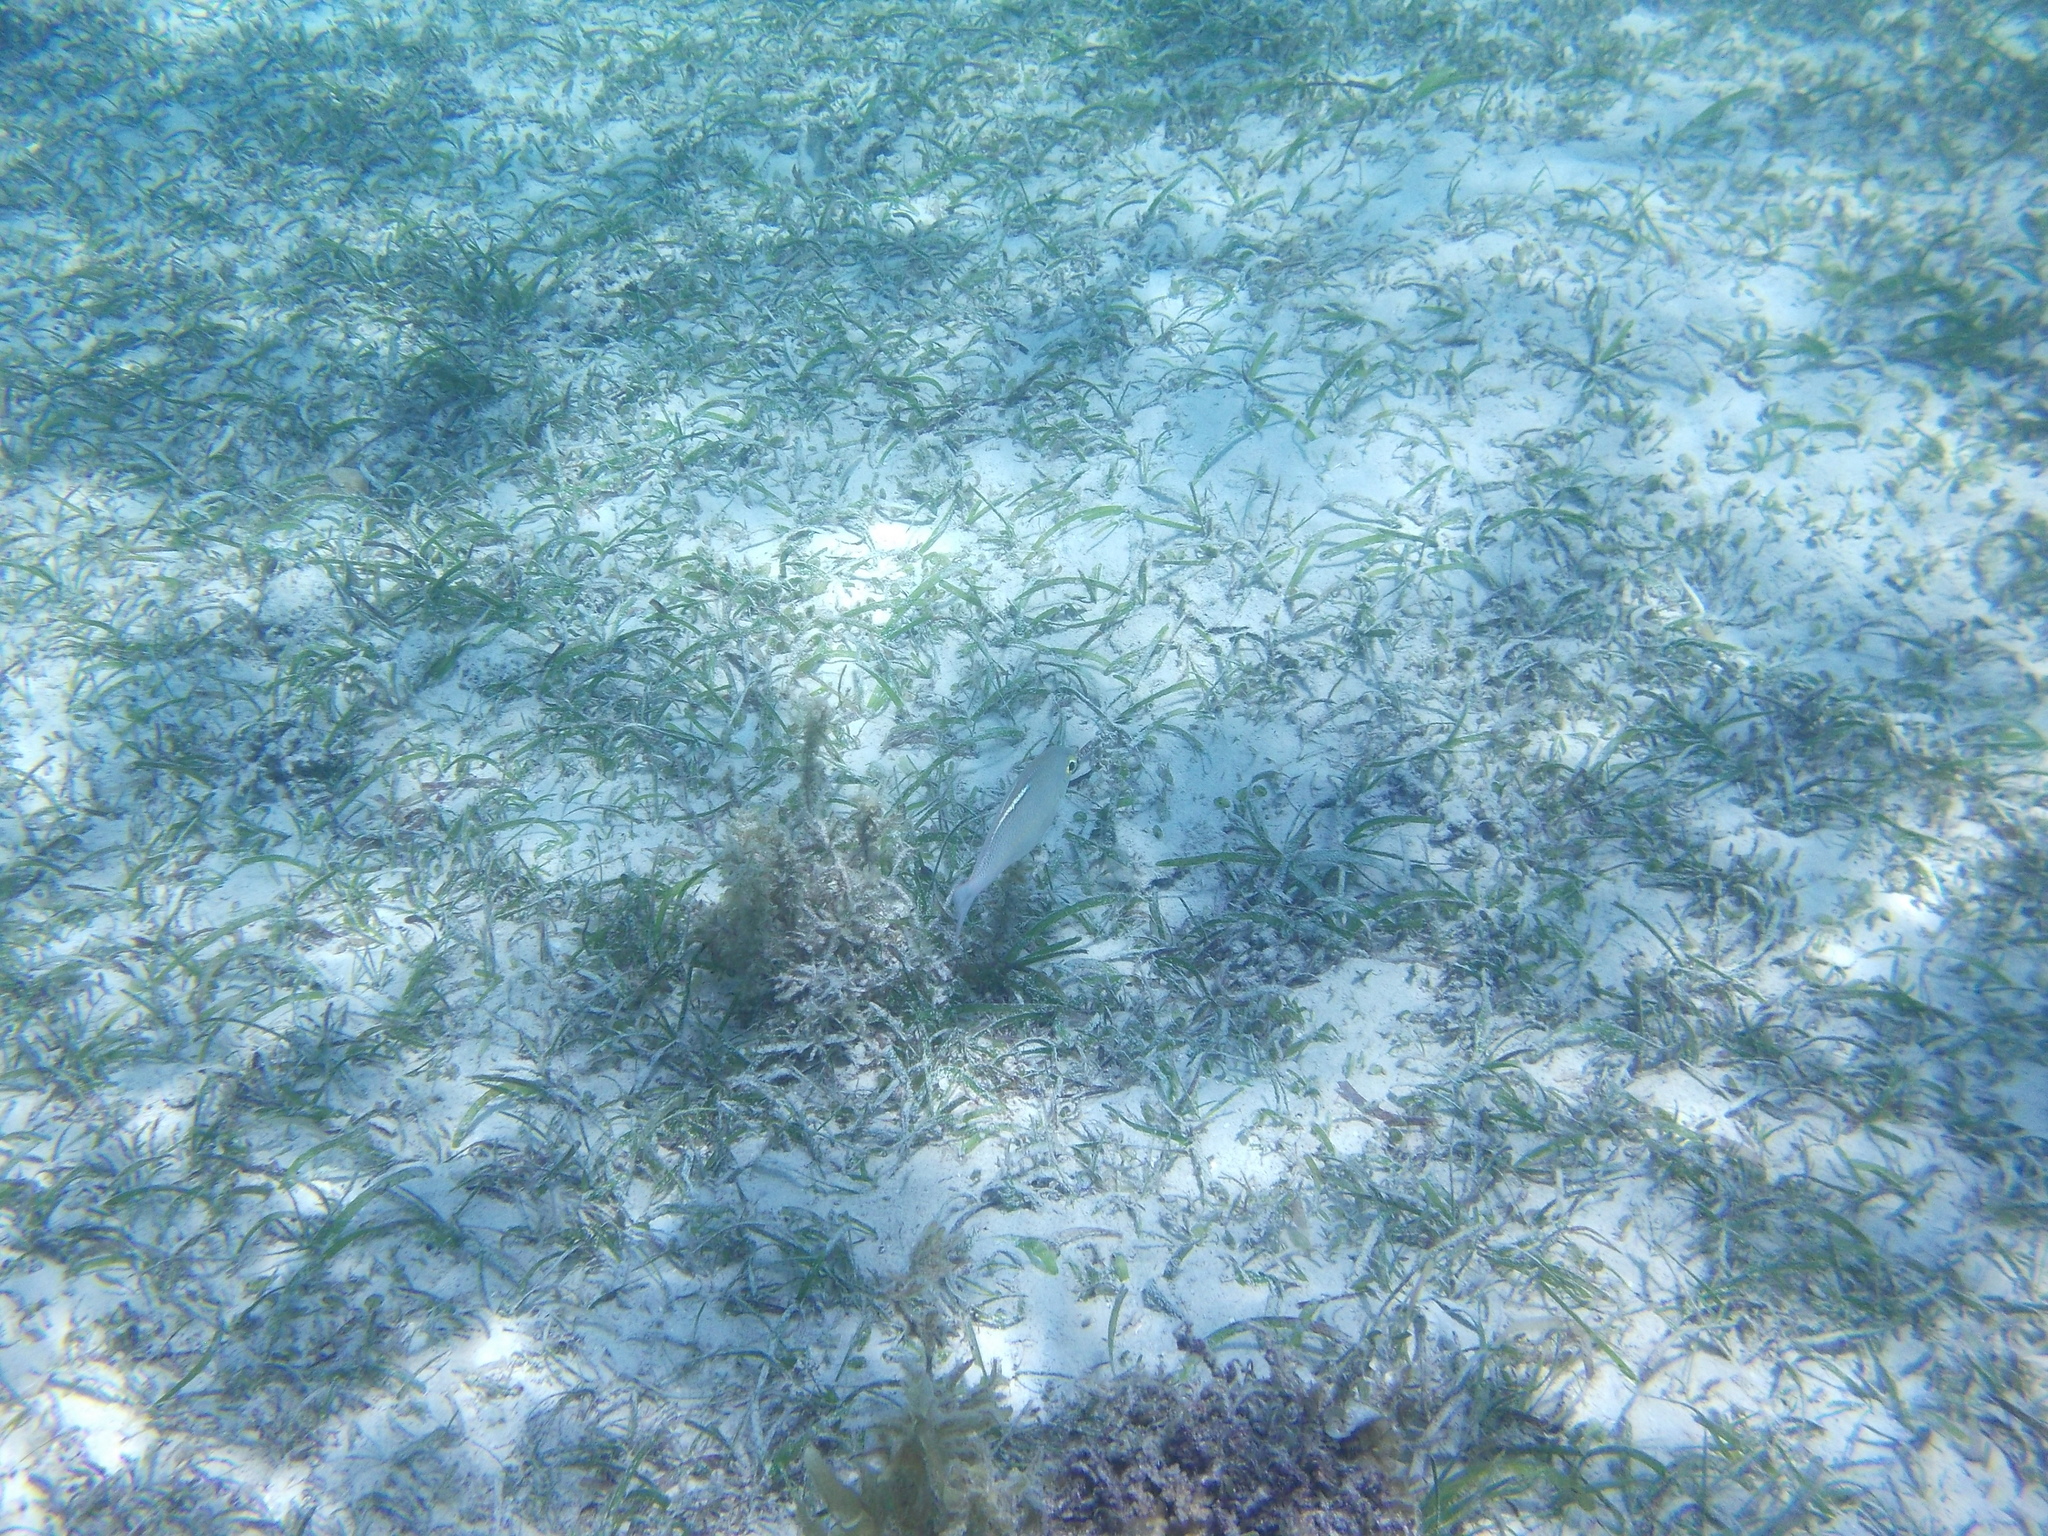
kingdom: Animalia
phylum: Chordata
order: Perciformes
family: Nemipteridae
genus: Scolopsis
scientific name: Scolopsis ciliata
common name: Ciliate spinecheek
